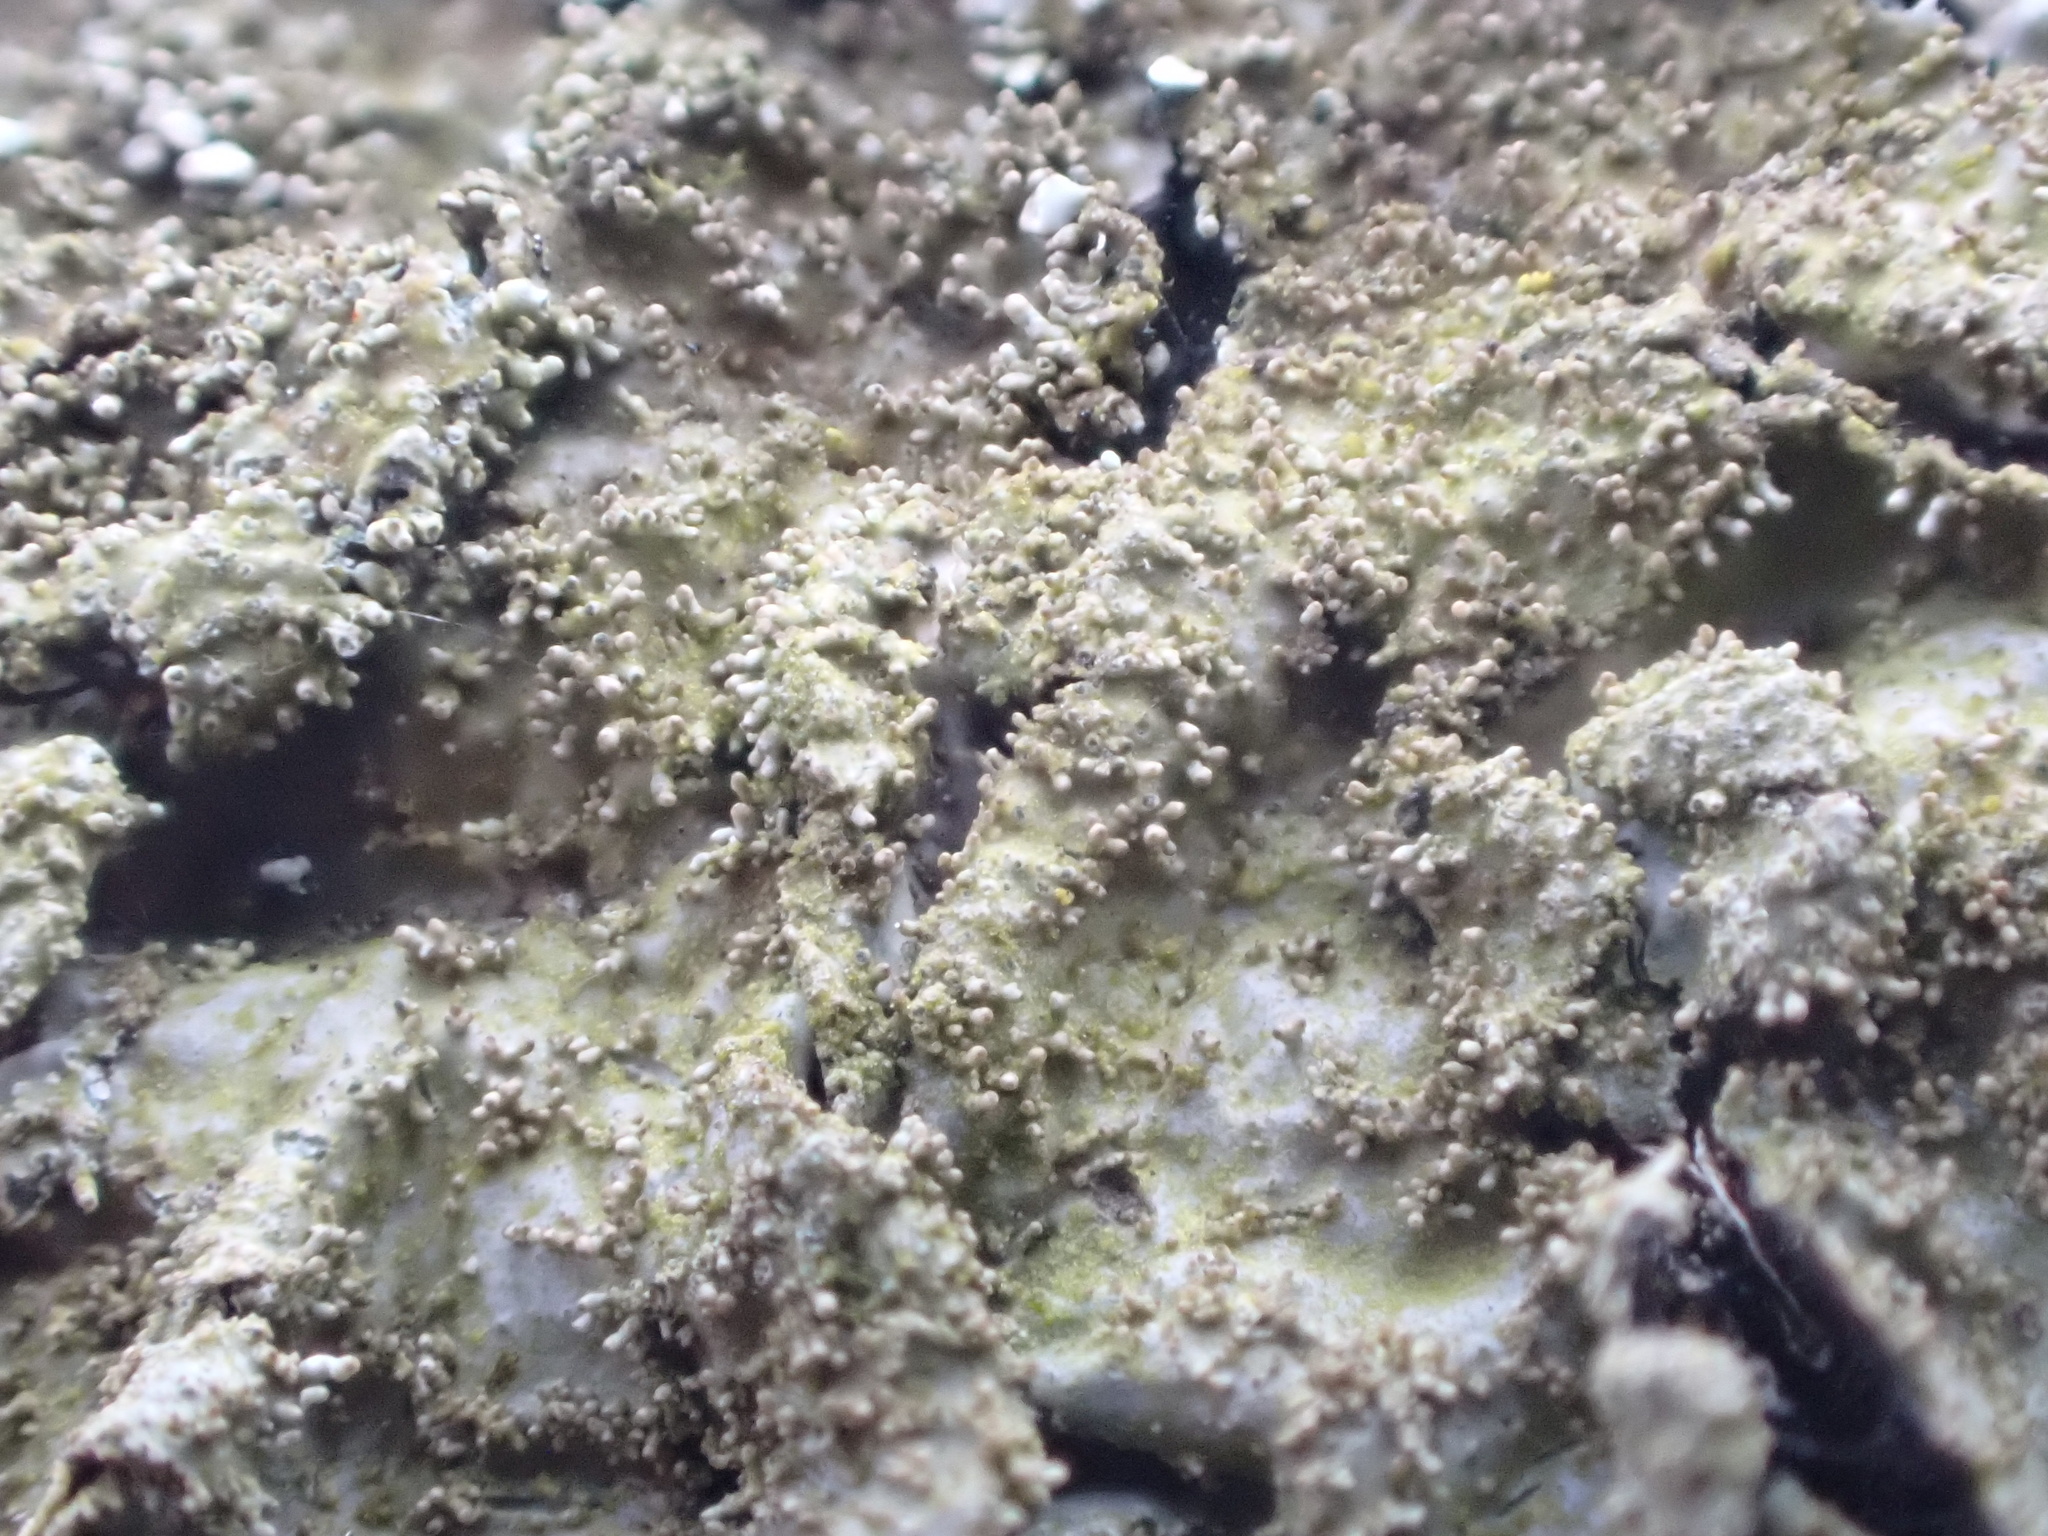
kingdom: Fungi
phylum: Ascomycota
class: Lecanoromycetes
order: Lecanorales
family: Parmeliaceae
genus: Parmelia
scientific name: Parmelia saxatilis
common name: Salted shield lichen
